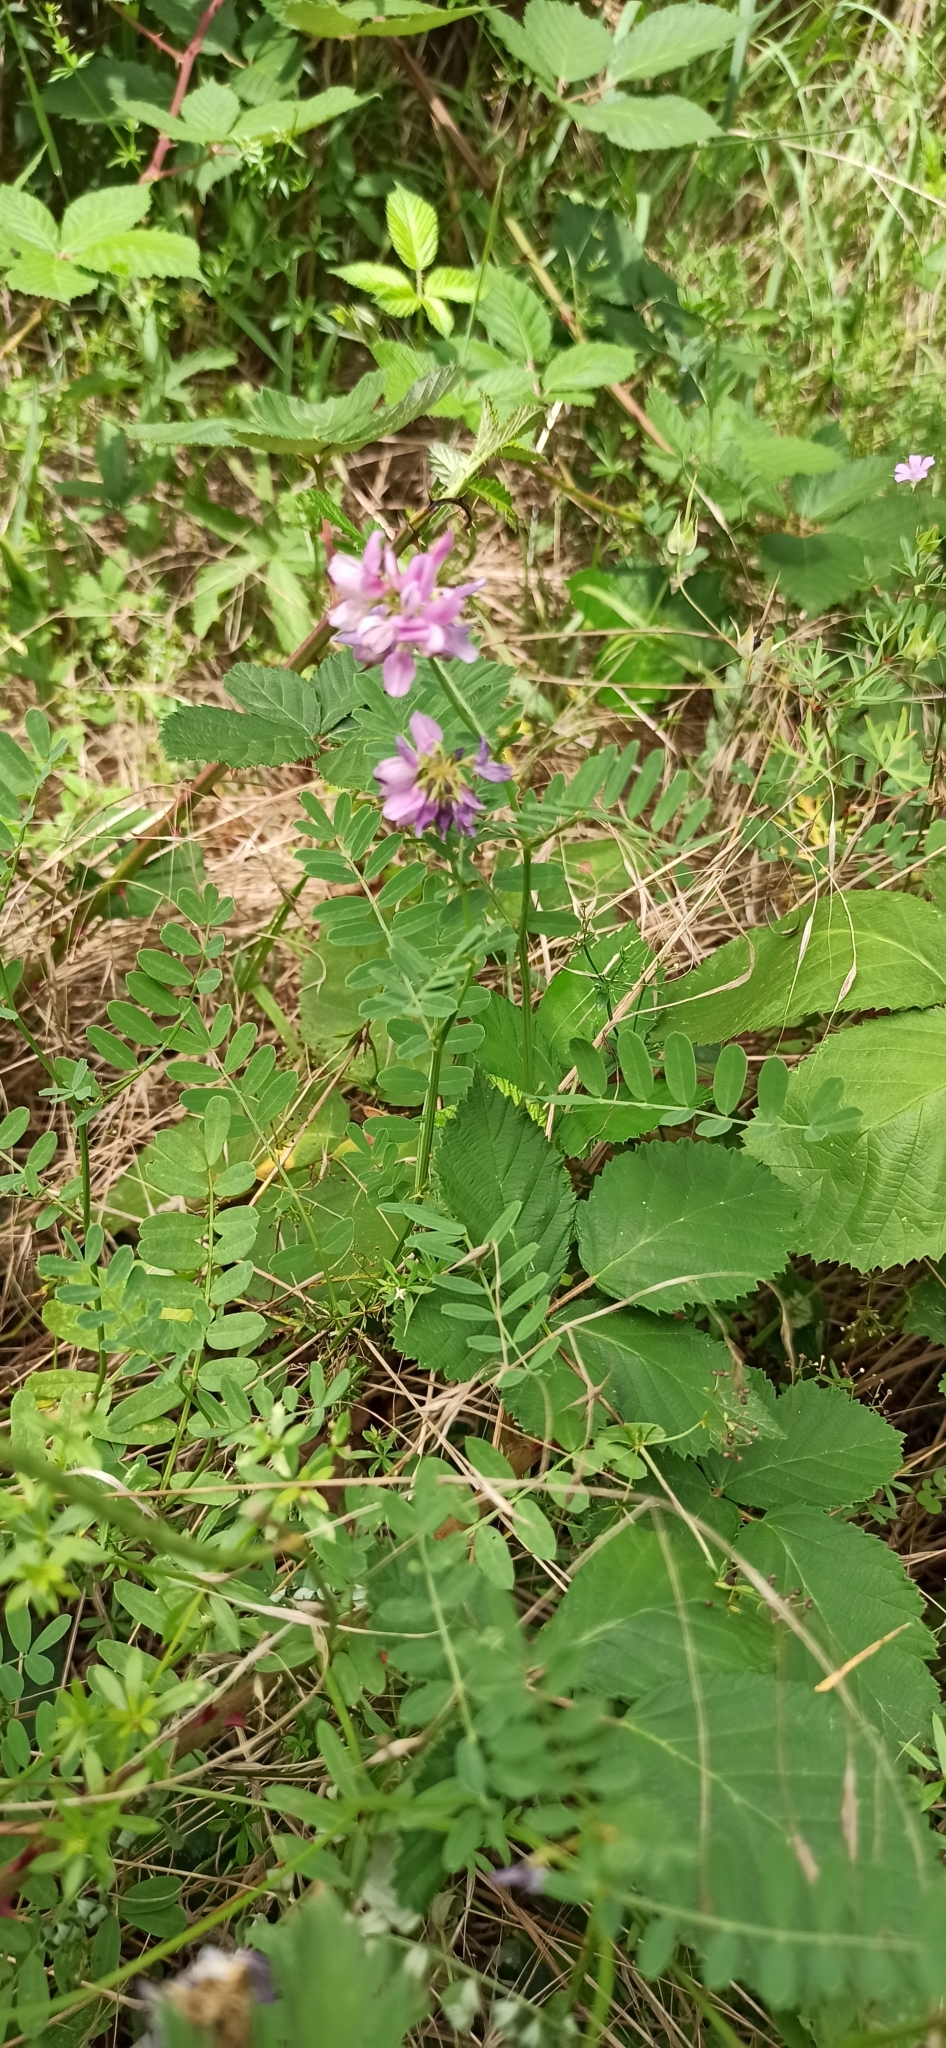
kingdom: Plantae
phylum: Tracheophyta
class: Magnoliopsida
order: Fabales
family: Fabaceae
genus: Coronilla
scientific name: Coronilla varia
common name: Crownvetch
